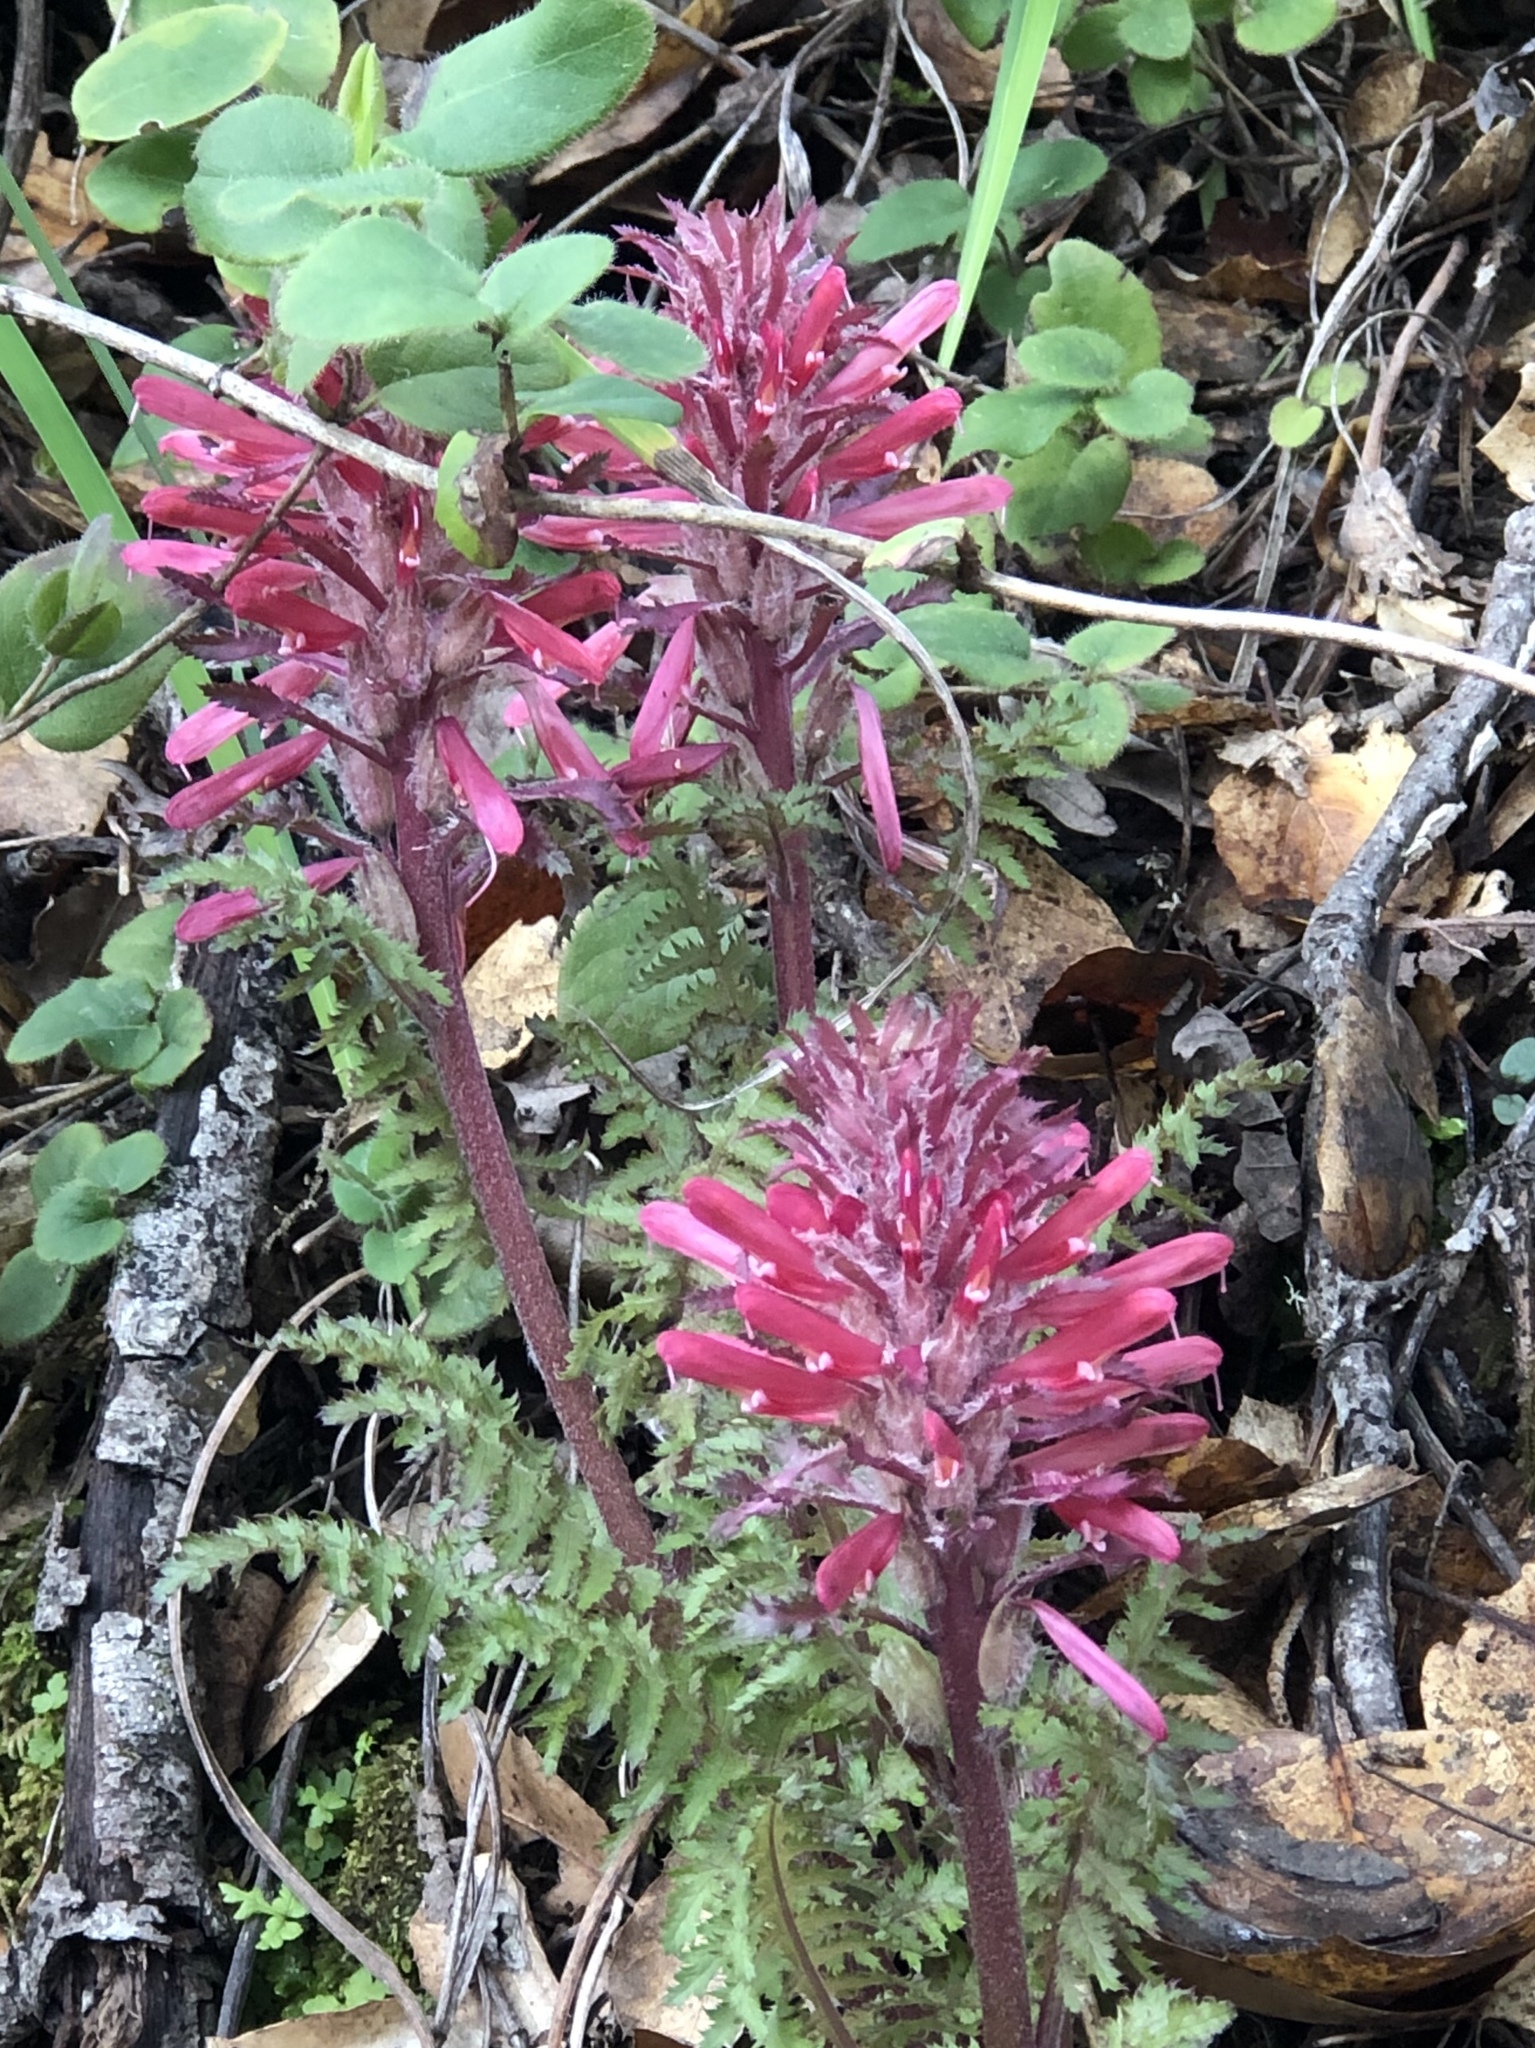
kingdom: Plantae
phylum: Tracheophyta
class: Magnoliopsida
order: Lamiales
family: Orobanchaceae
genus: Pedicularis
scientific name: Pedicularis densiflora
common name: Indian warrior
